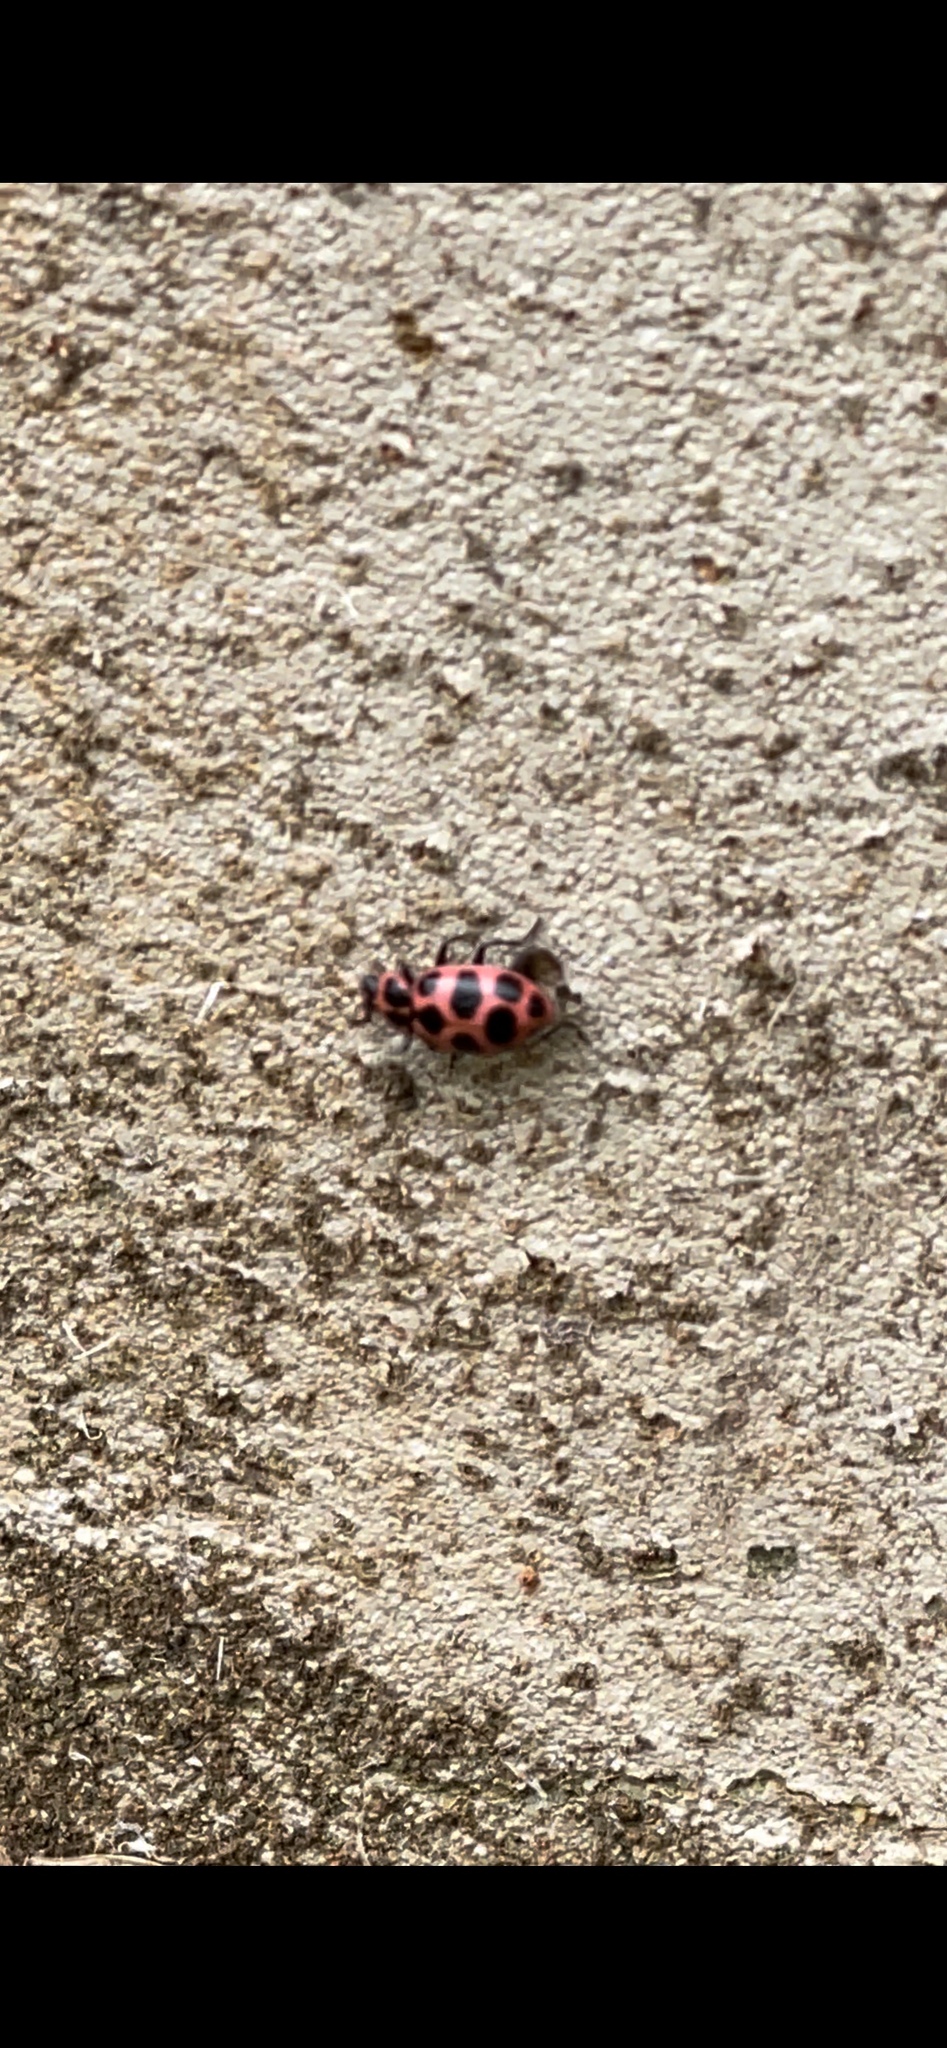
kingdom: Animalia
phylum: Arthropoda
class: Insecta
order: Coleoptera
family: Coccinellidae
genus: Coleomegilla
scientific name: Coleomegilla maculata
